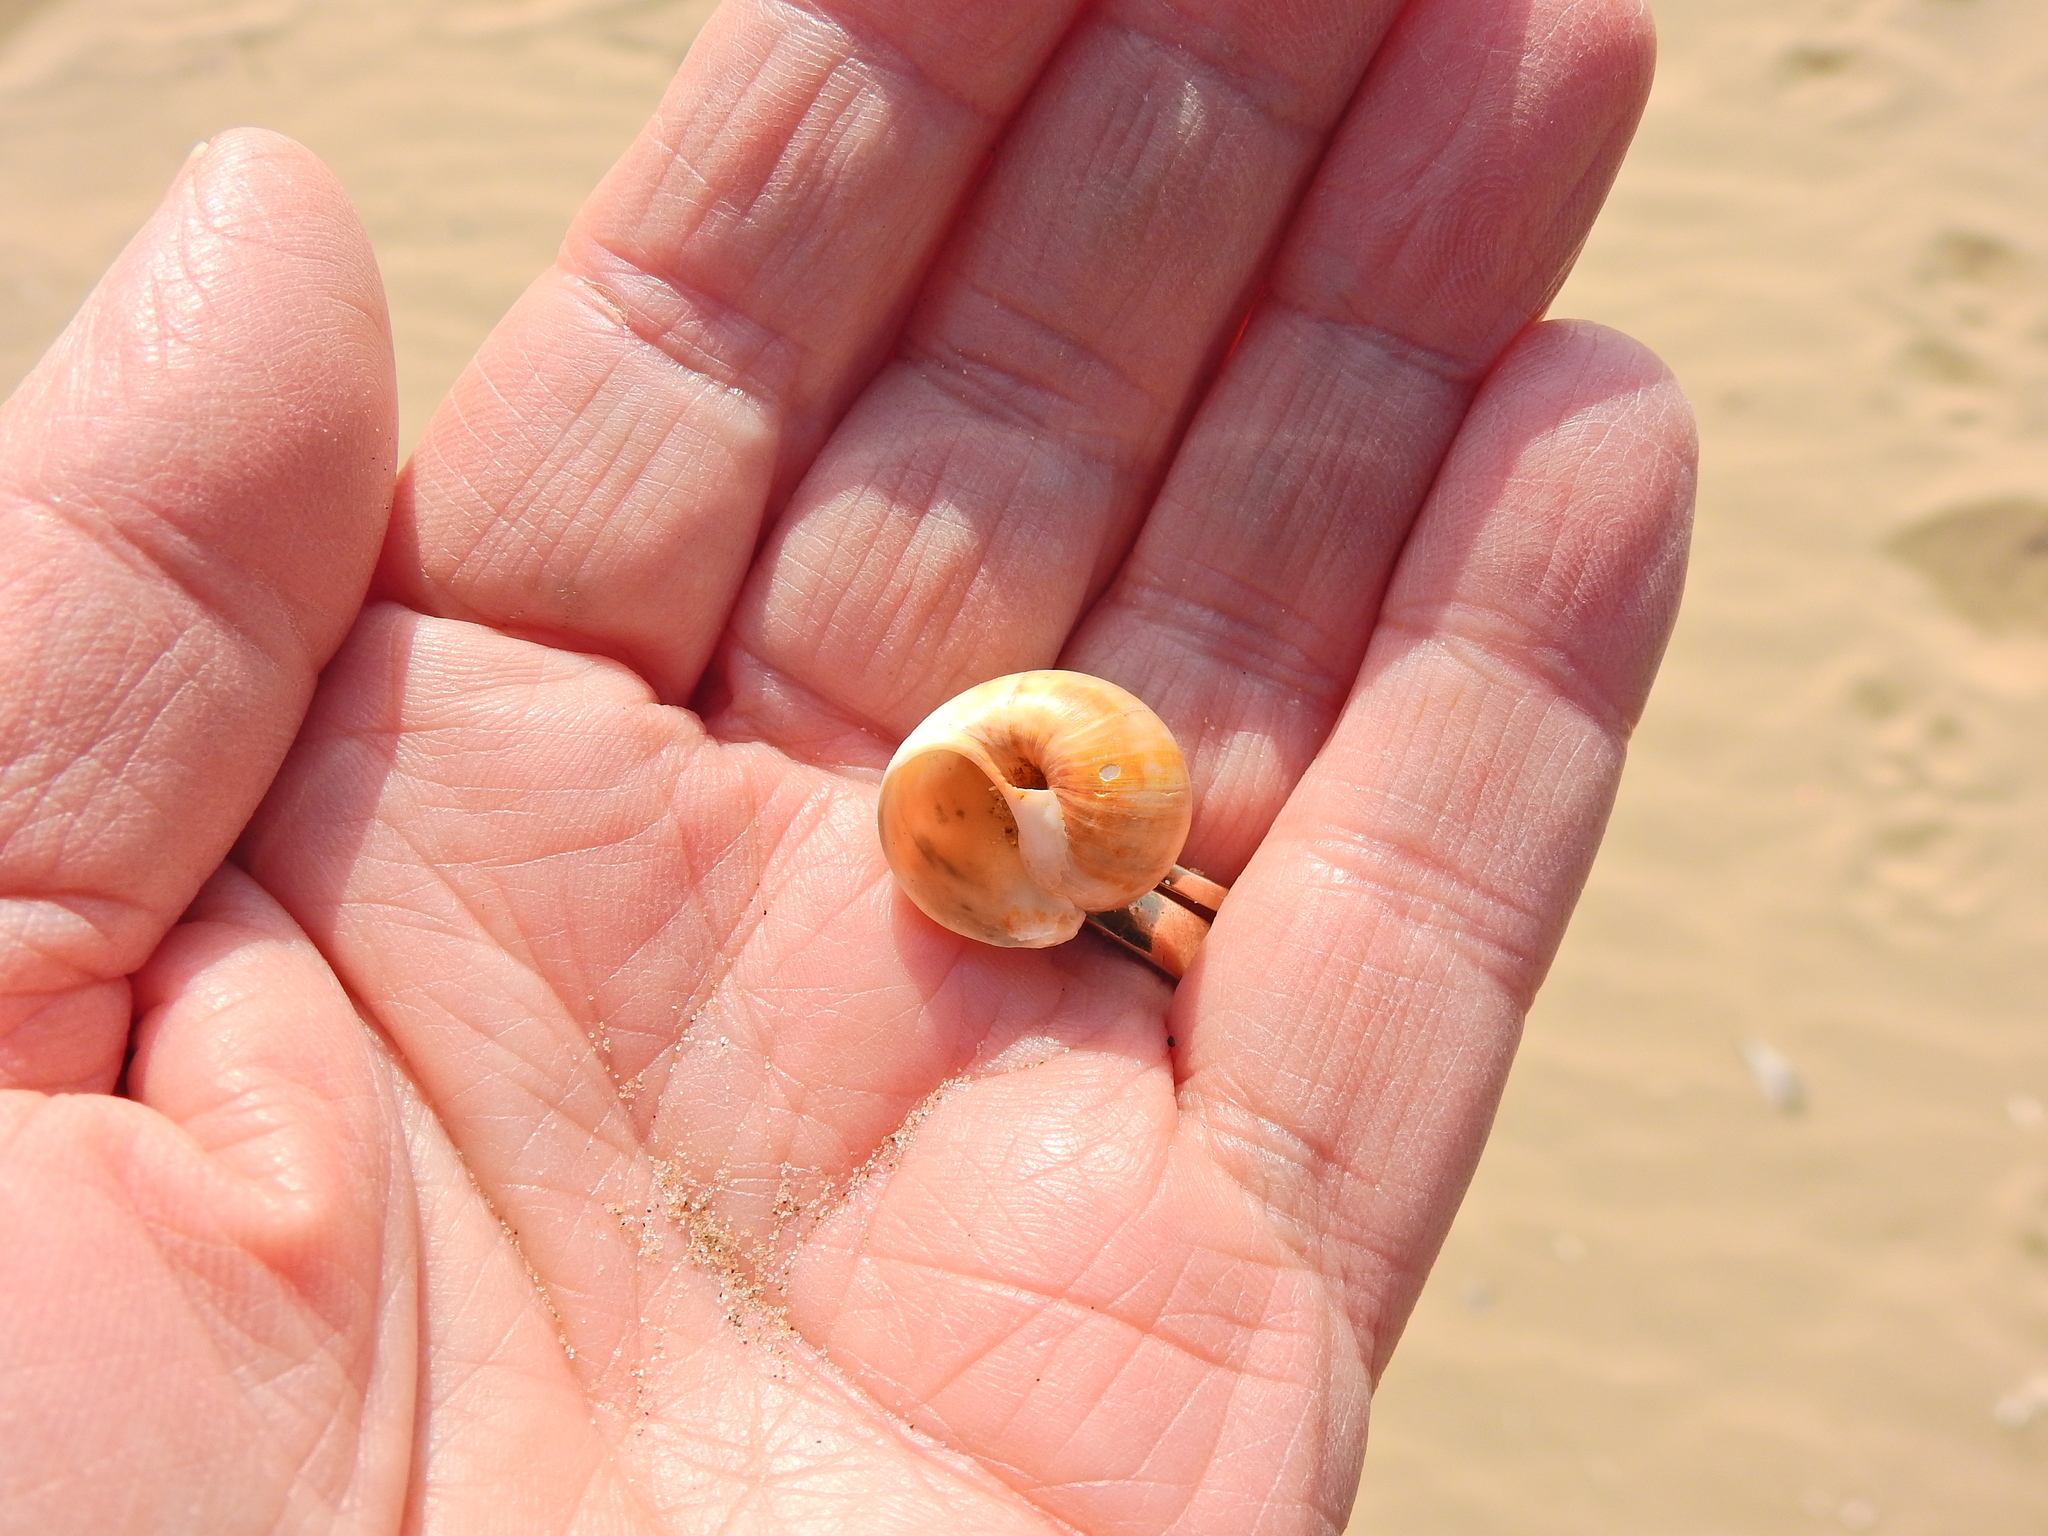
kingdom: Animalia
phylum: Mollusca
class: Gastropoda
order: Littorinimorpha
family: Naticidae
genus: Euspira
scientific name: Euspira catena
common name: Necklace shell
